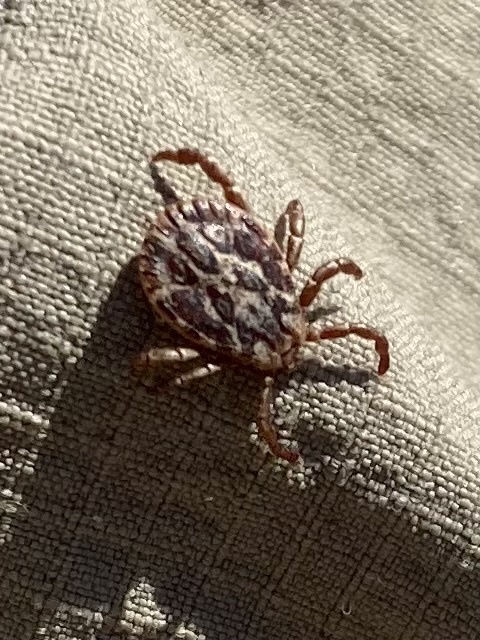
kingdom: Animalia
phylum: Arthropoda
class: Arachnida
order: Ixodida
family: Ixodidae
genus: Dermacentor
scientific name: Dermacentor marginatus
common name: Ornate sheep tick
